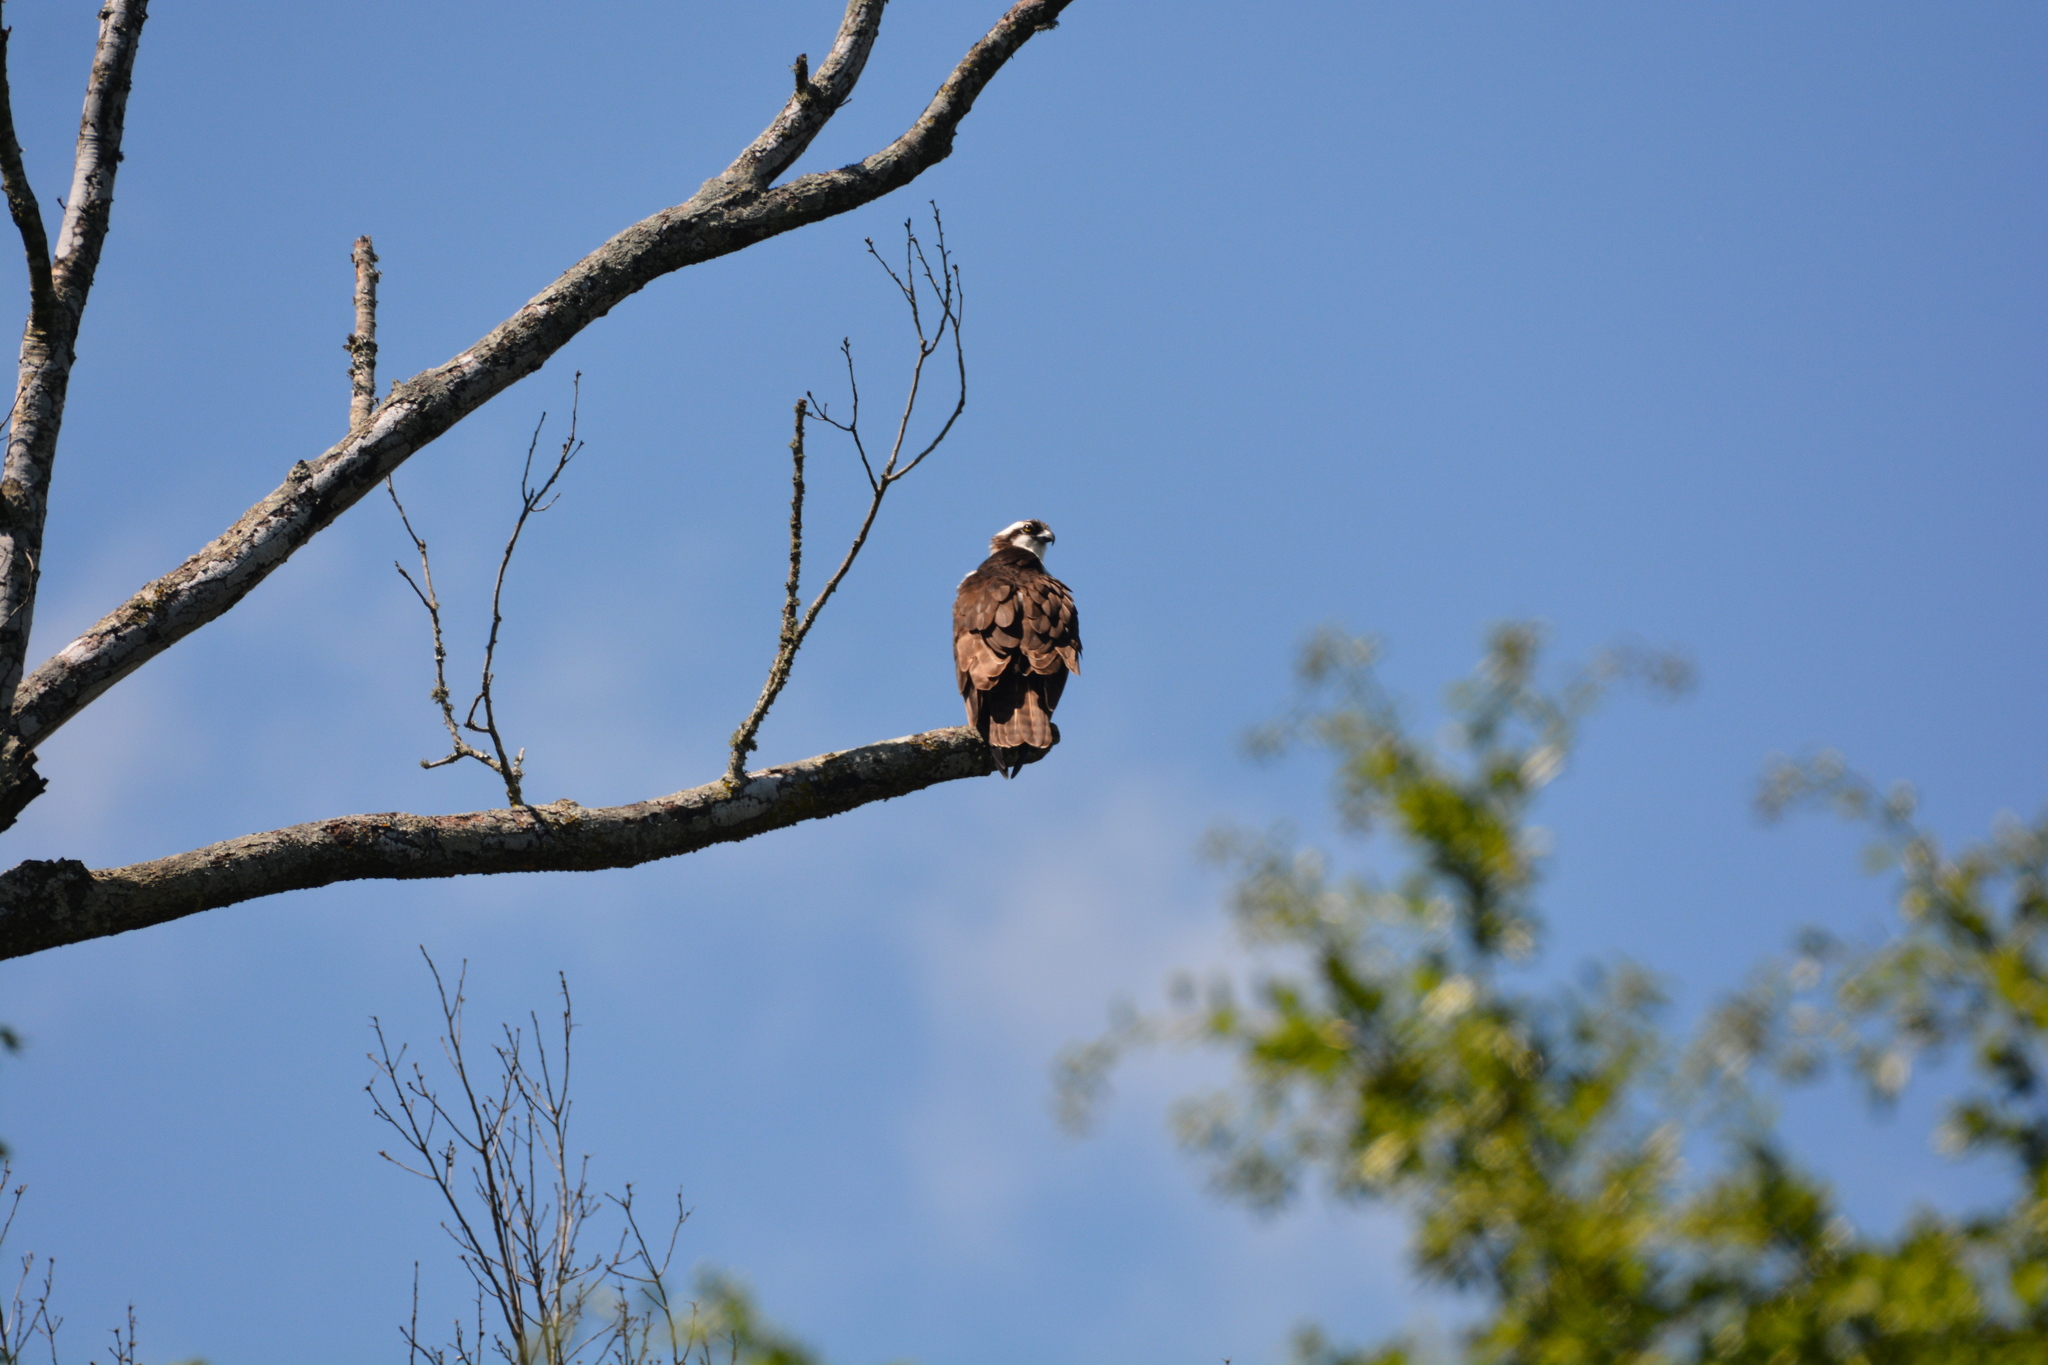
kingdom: Animalia
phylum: Chordata
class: Aves
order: Accipitriformes
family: Pandionidae
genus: Pandion
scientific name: Pandion haliaetus
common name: Osprey
